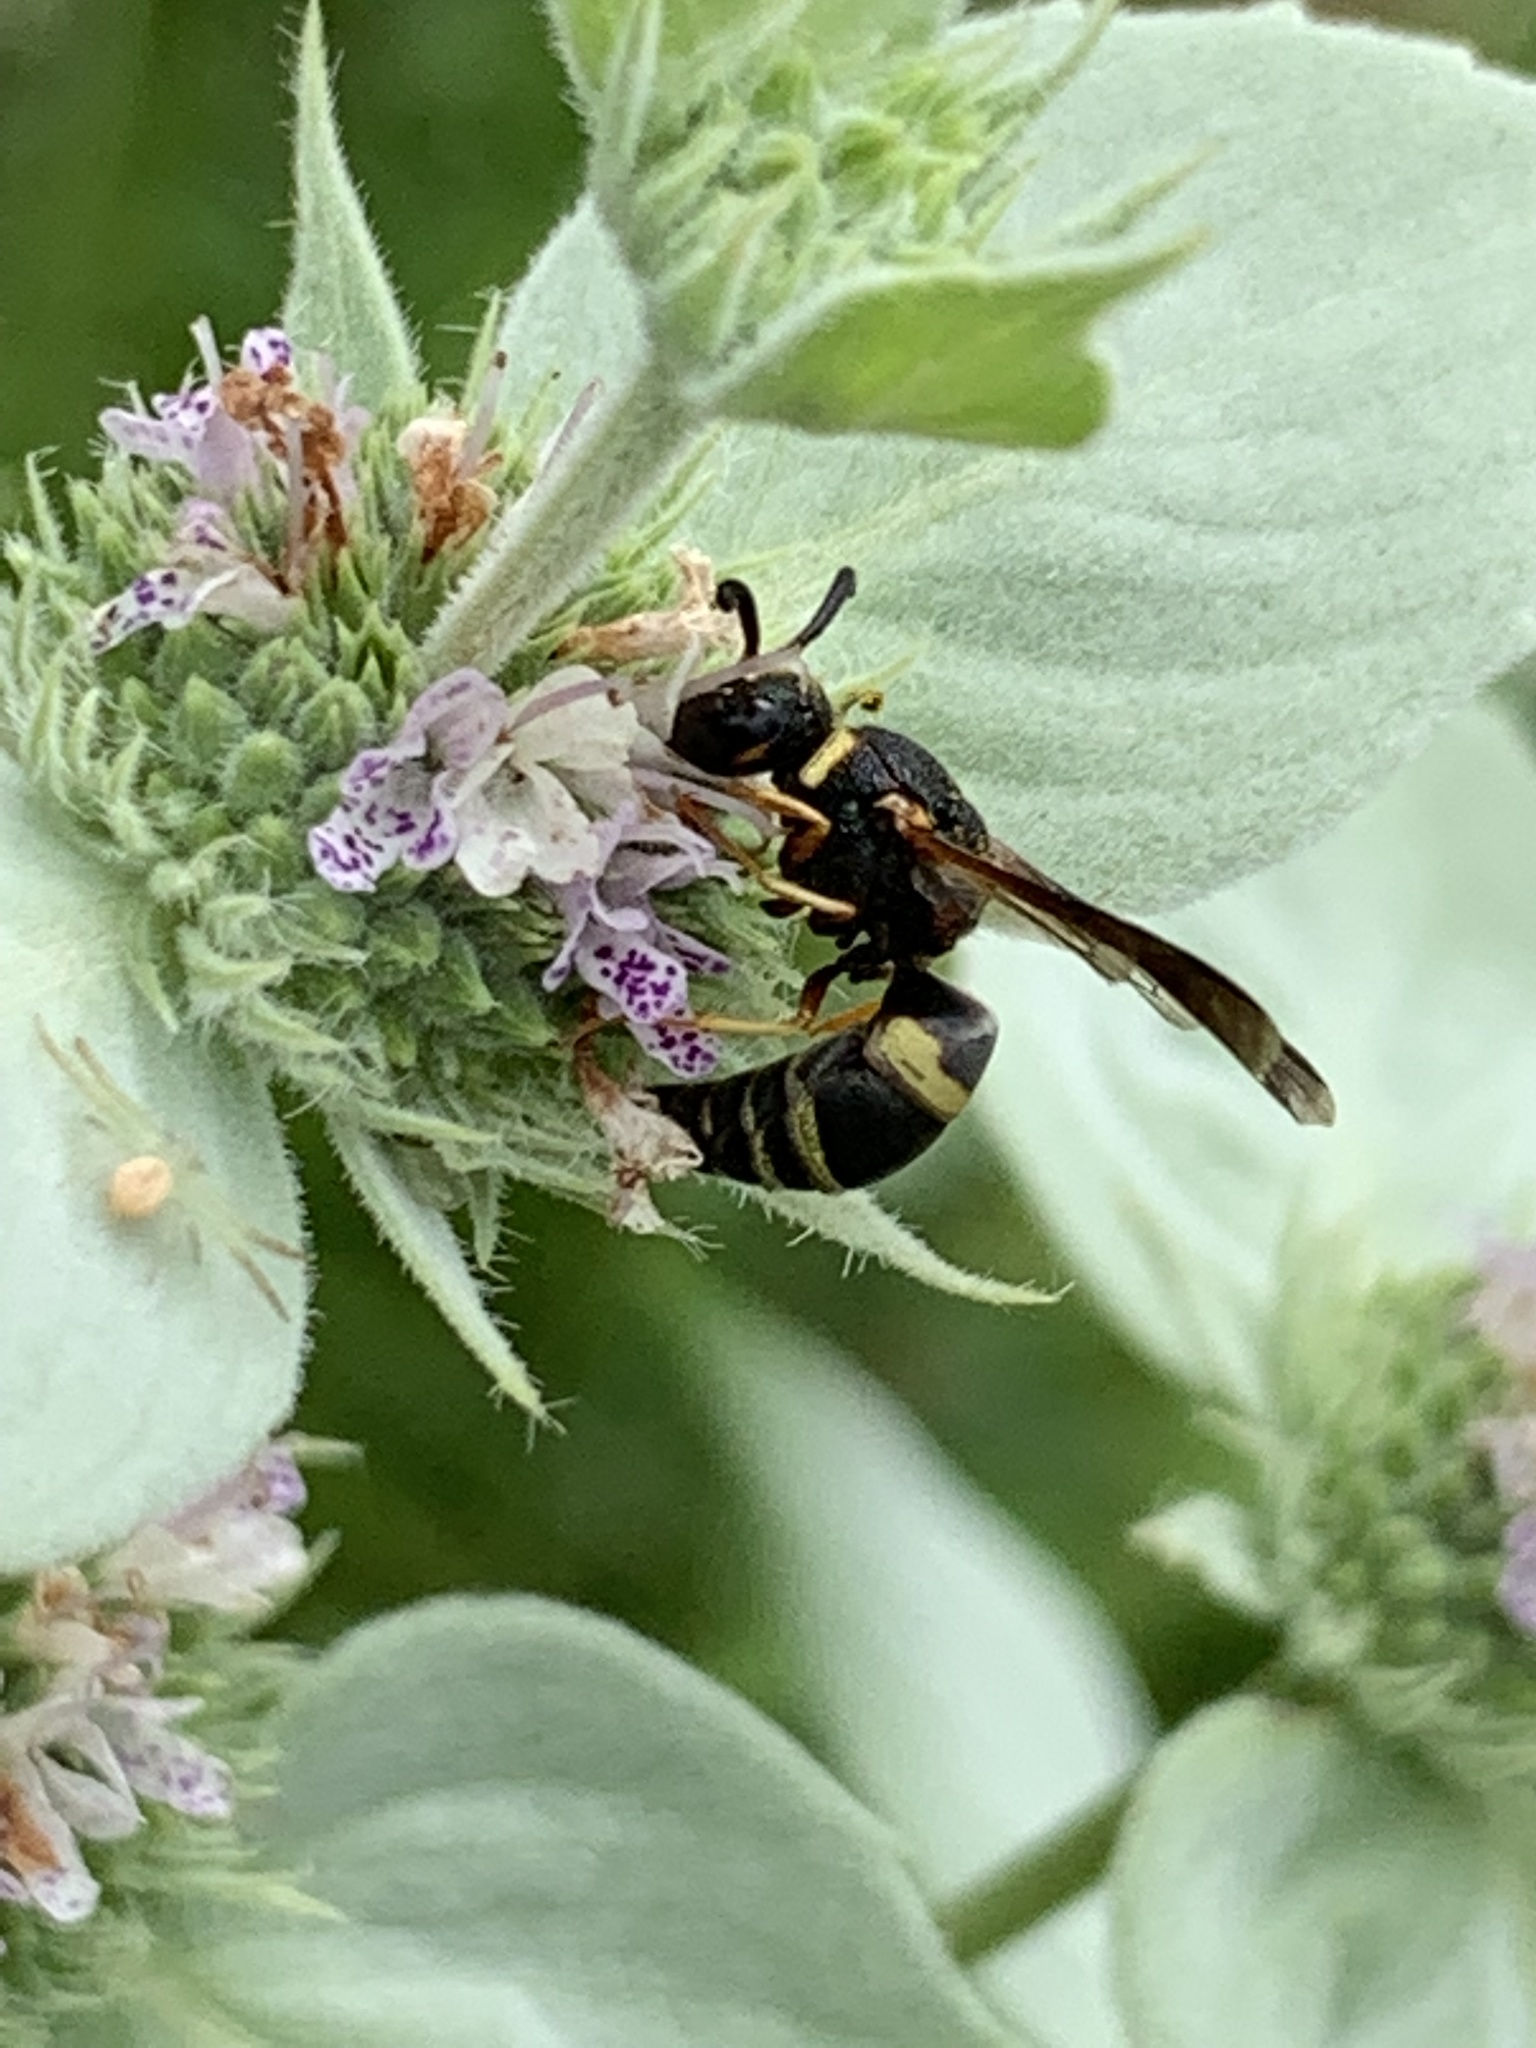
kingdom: Animalia
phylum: Arthropoda
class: Insecta
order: Hymenoptera
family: Eumenidae
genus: Euodynerus
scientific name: Euodynerus hidalgo
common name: Wasp
